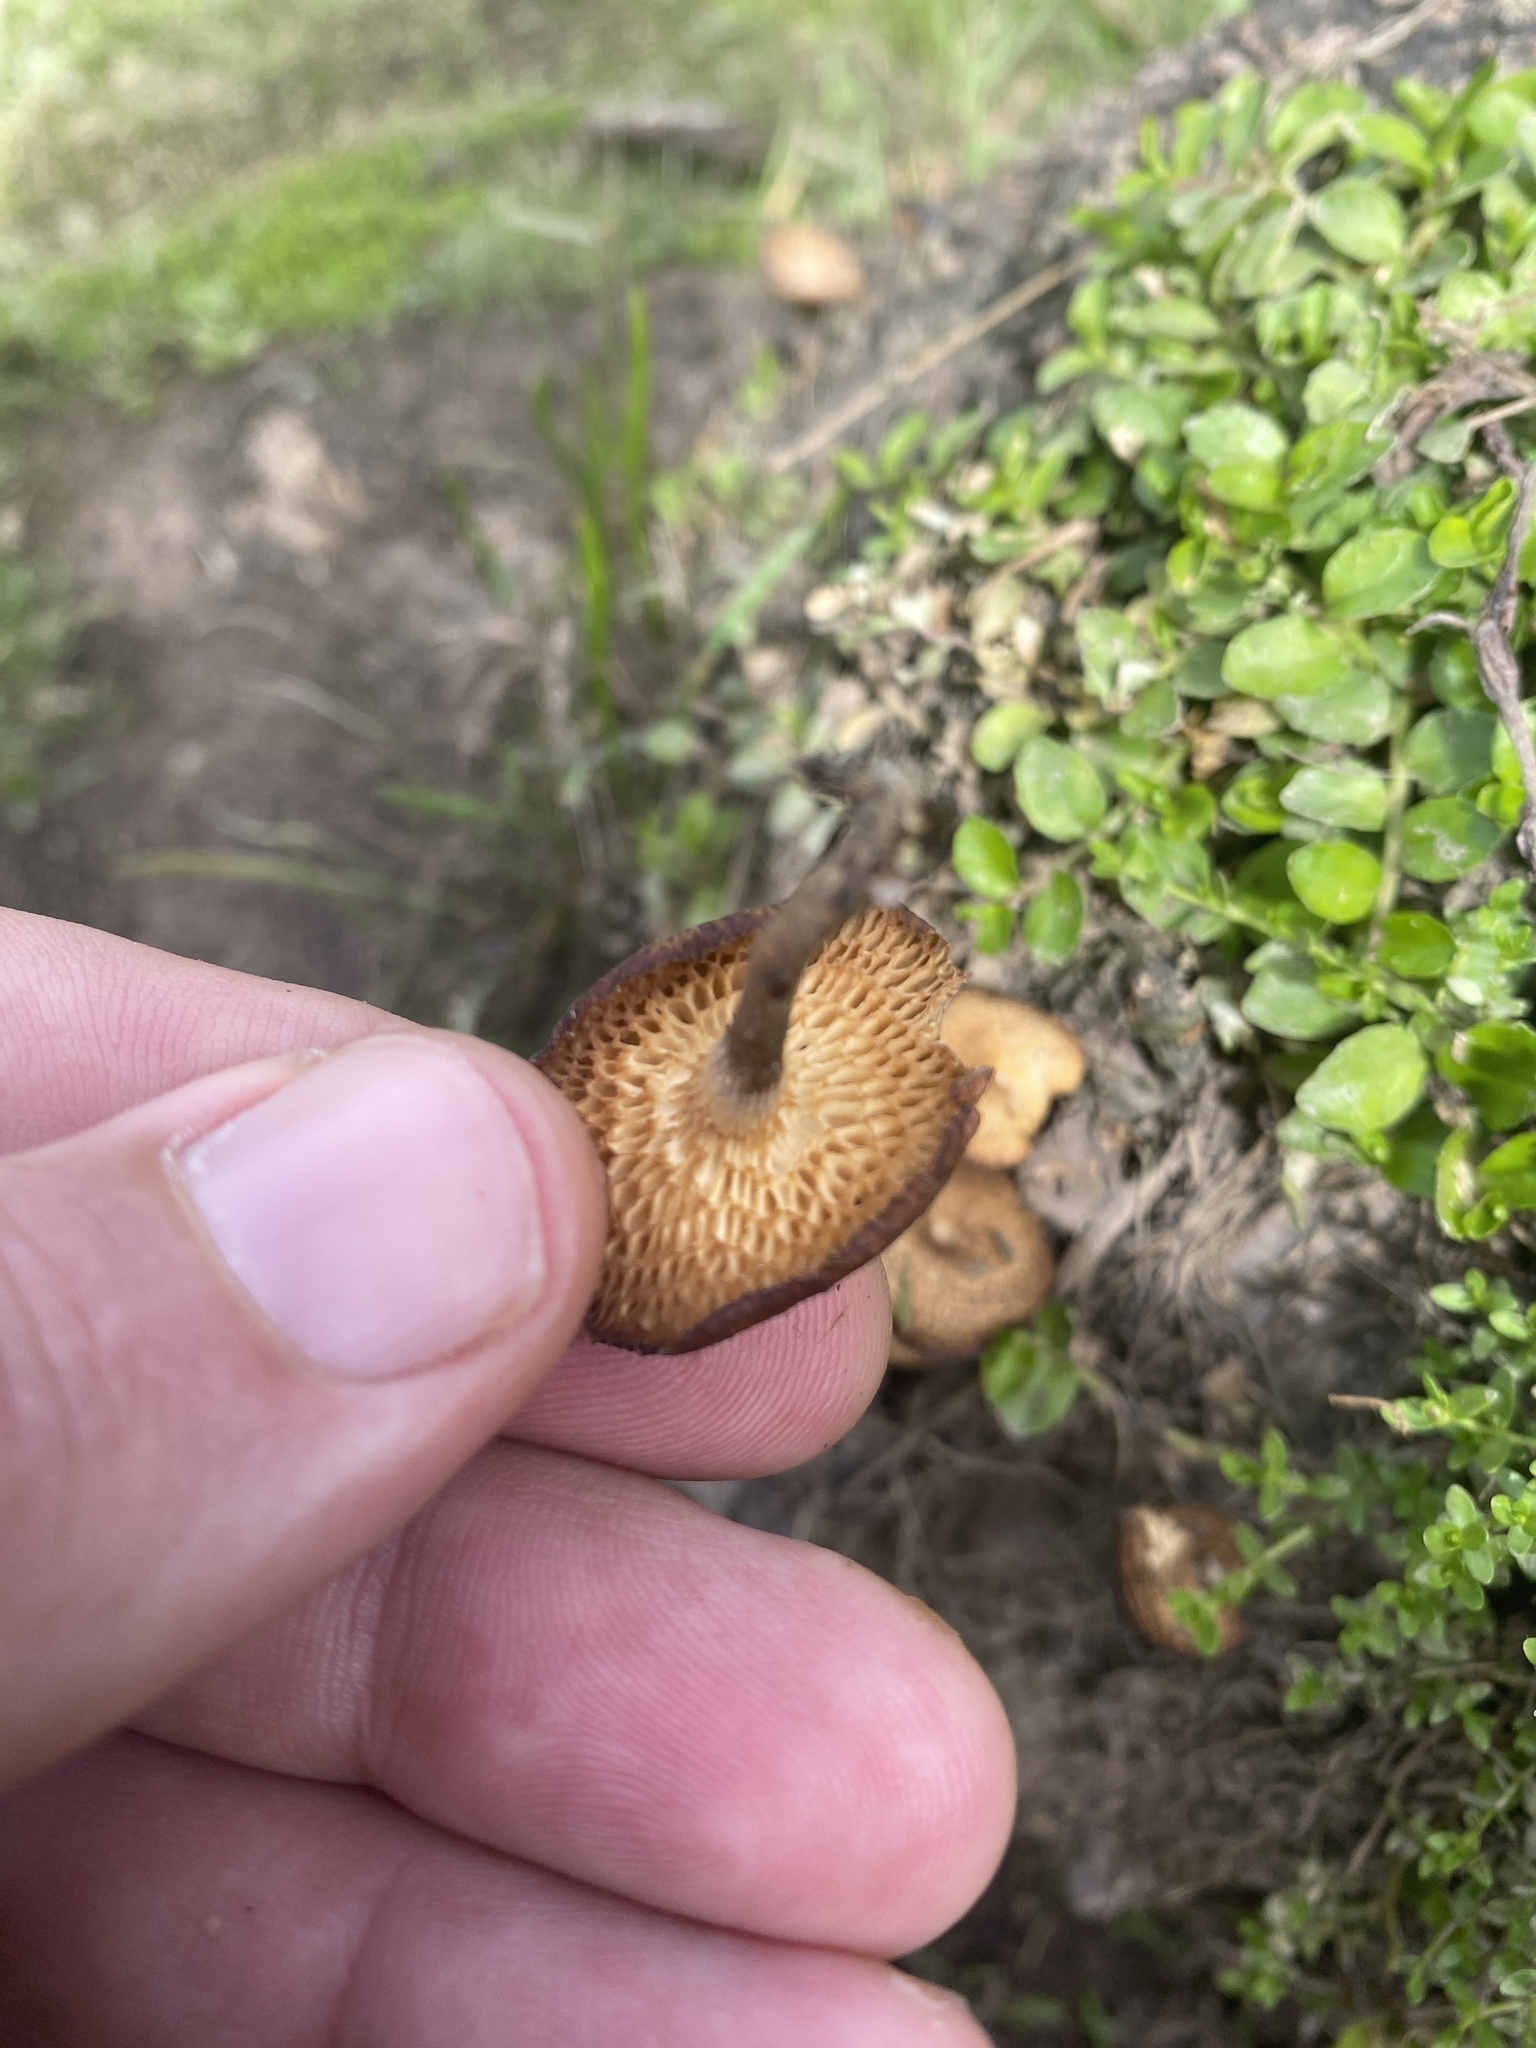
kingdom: Fungi
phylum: Basidiomycota
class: Agaricomycetes
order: Polyporales
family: Polyporaceae
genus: Lentinus
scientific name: Lentinus arcularius
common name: Spring polypore
